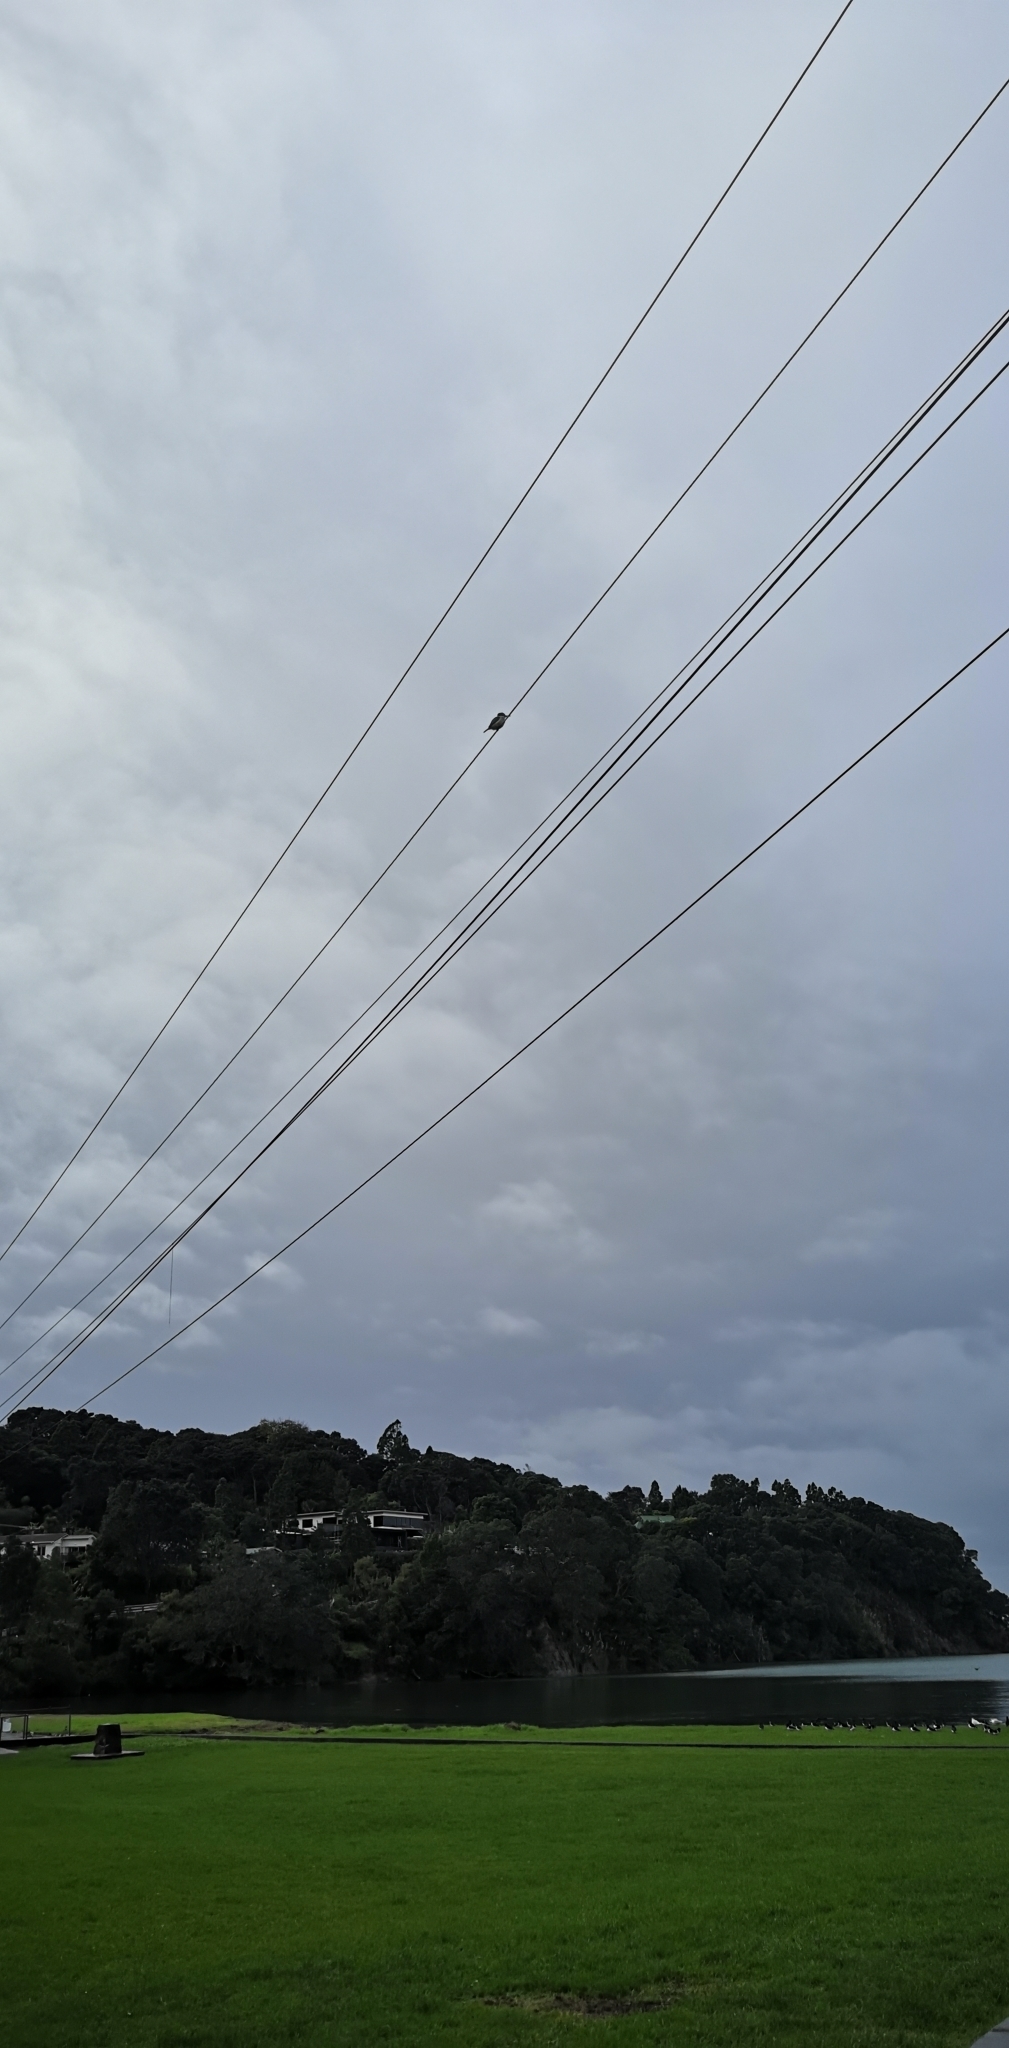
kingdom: Animalia
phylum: Chordata
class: Aves
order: Coraciiformes
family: Alcedinidae
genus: Todiramphus
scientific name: Todiramphus sanctus
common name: Sacred kingfisher
